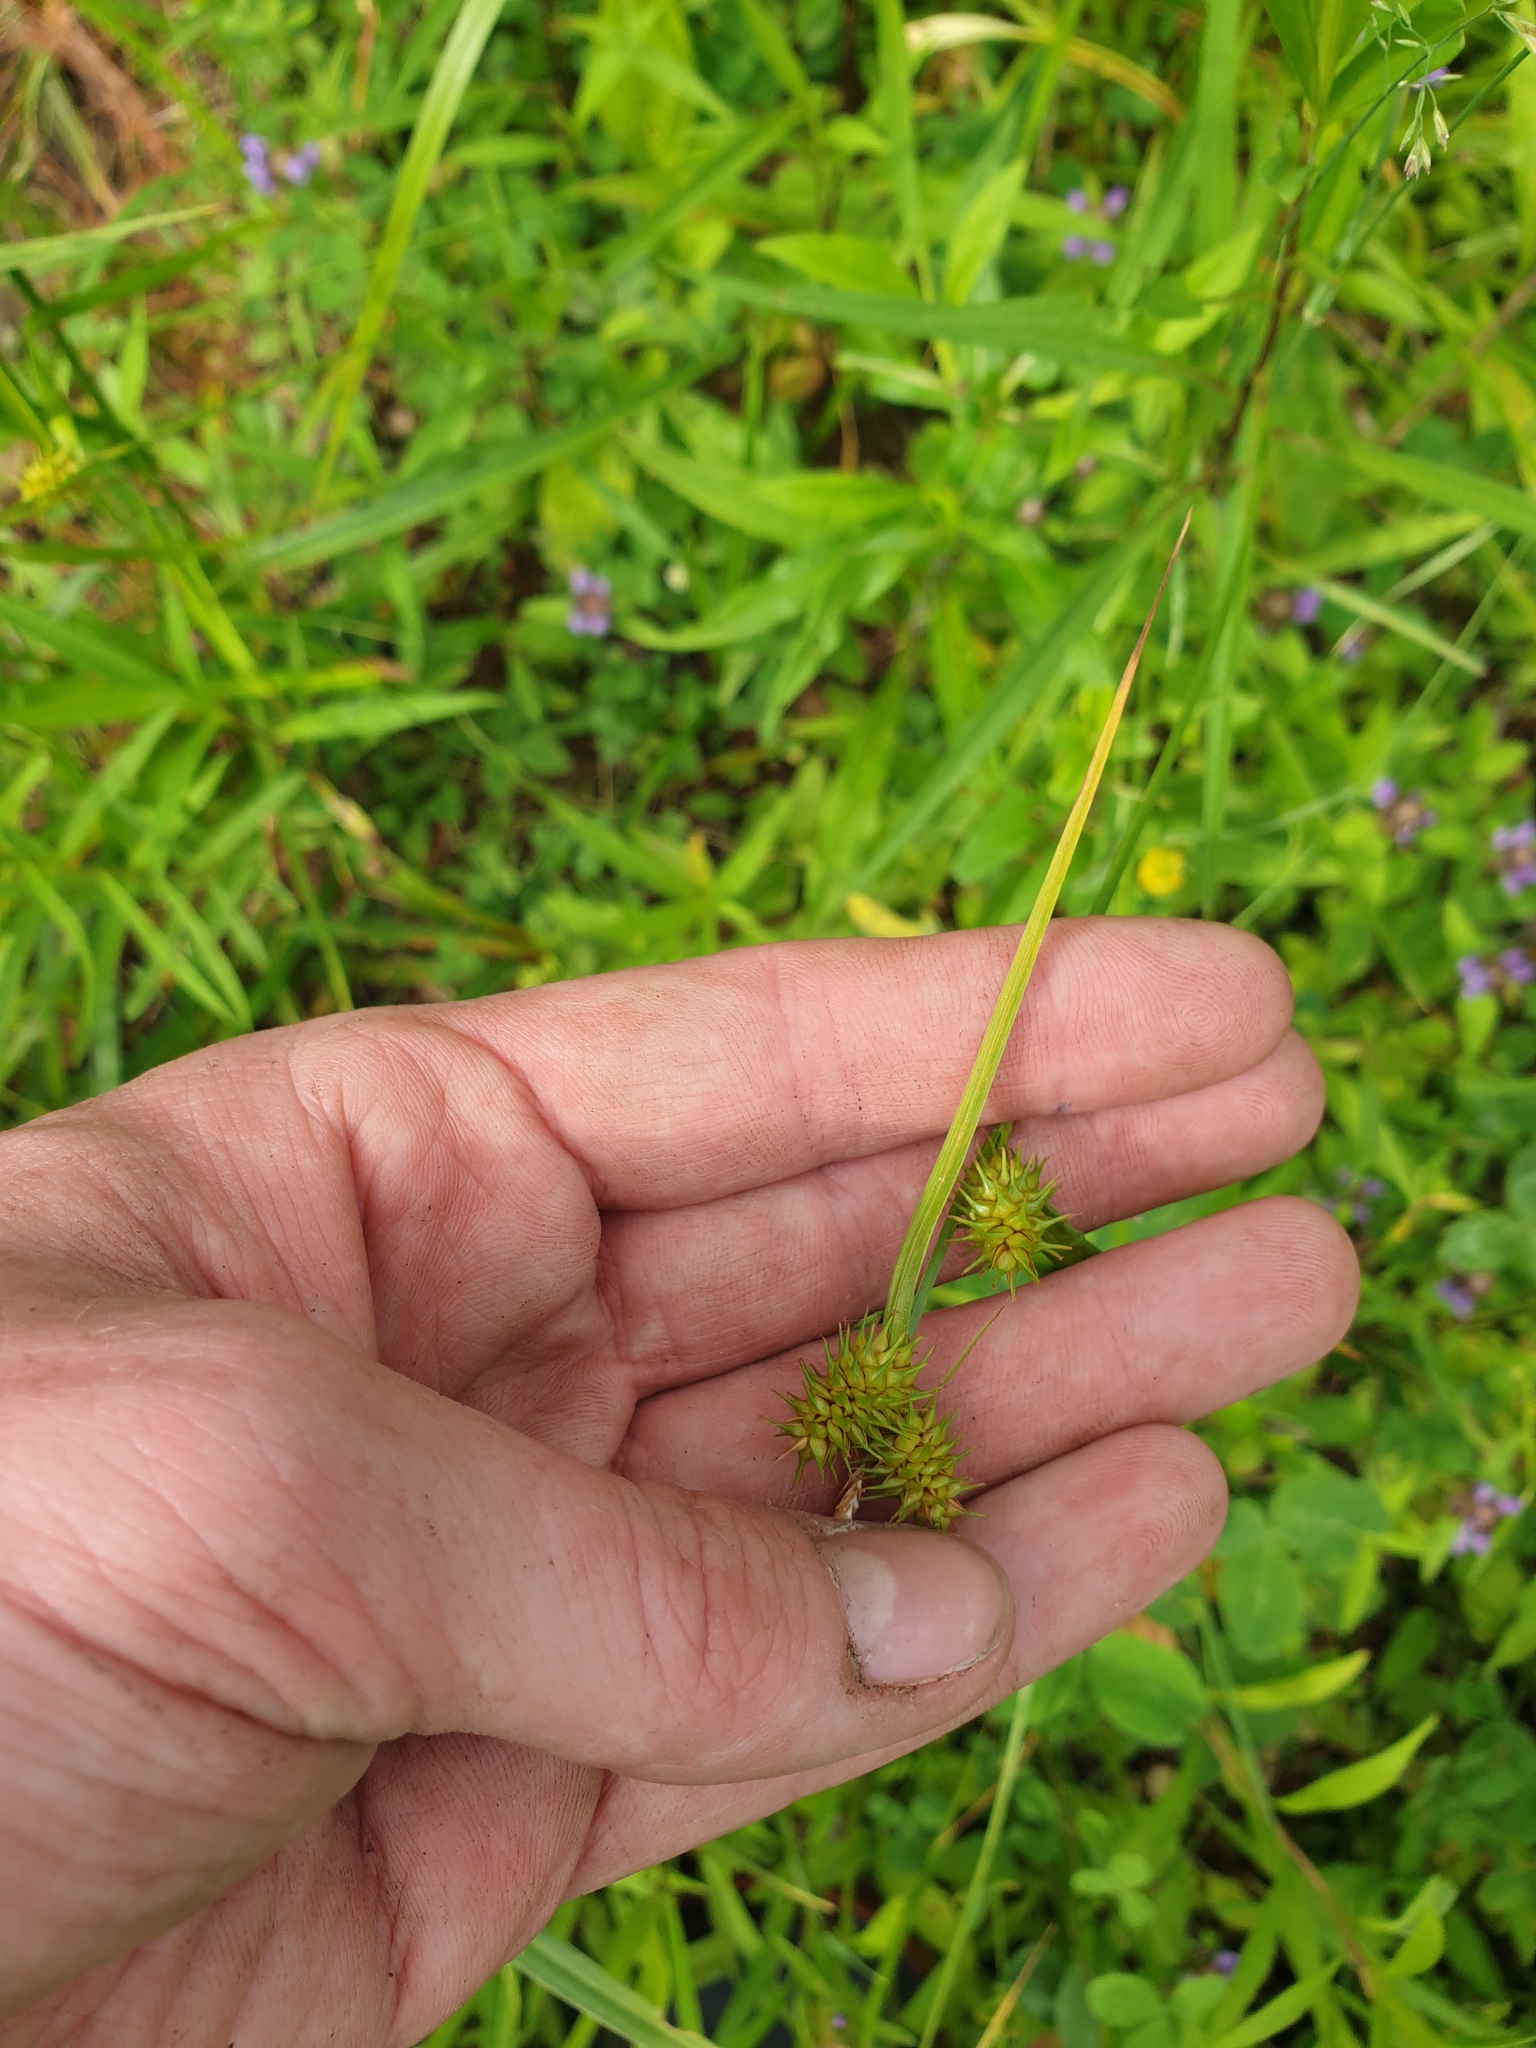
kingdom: Plantae
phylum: Tracheophyta
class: Liliopsida
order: Poales
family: Cyperaceae
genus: Carex
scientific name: Carex flava
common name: Large yellow-sedge
